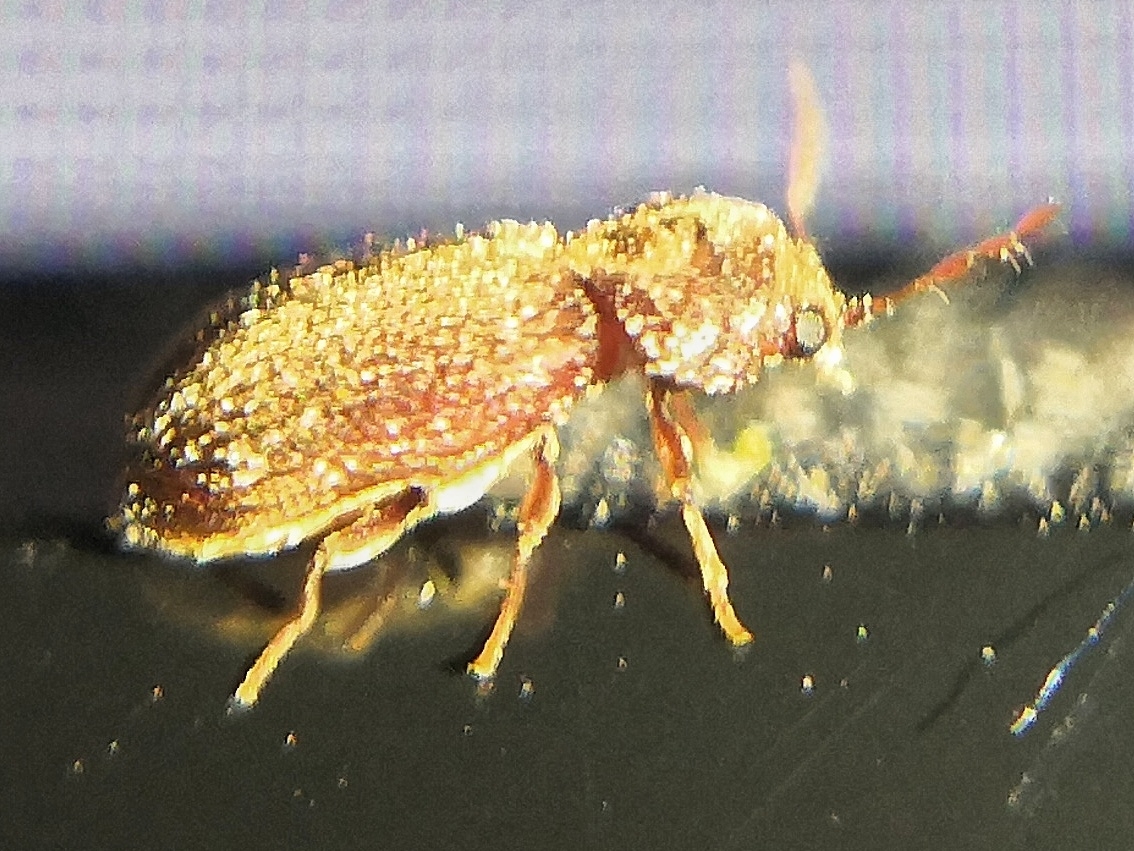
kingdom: Animalia
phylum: Arthropoda
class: Insecta
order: Coleoptera
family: Anobiidae
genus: Stegobium
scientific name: Stegobium paniceum
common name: Drugstore beetle
